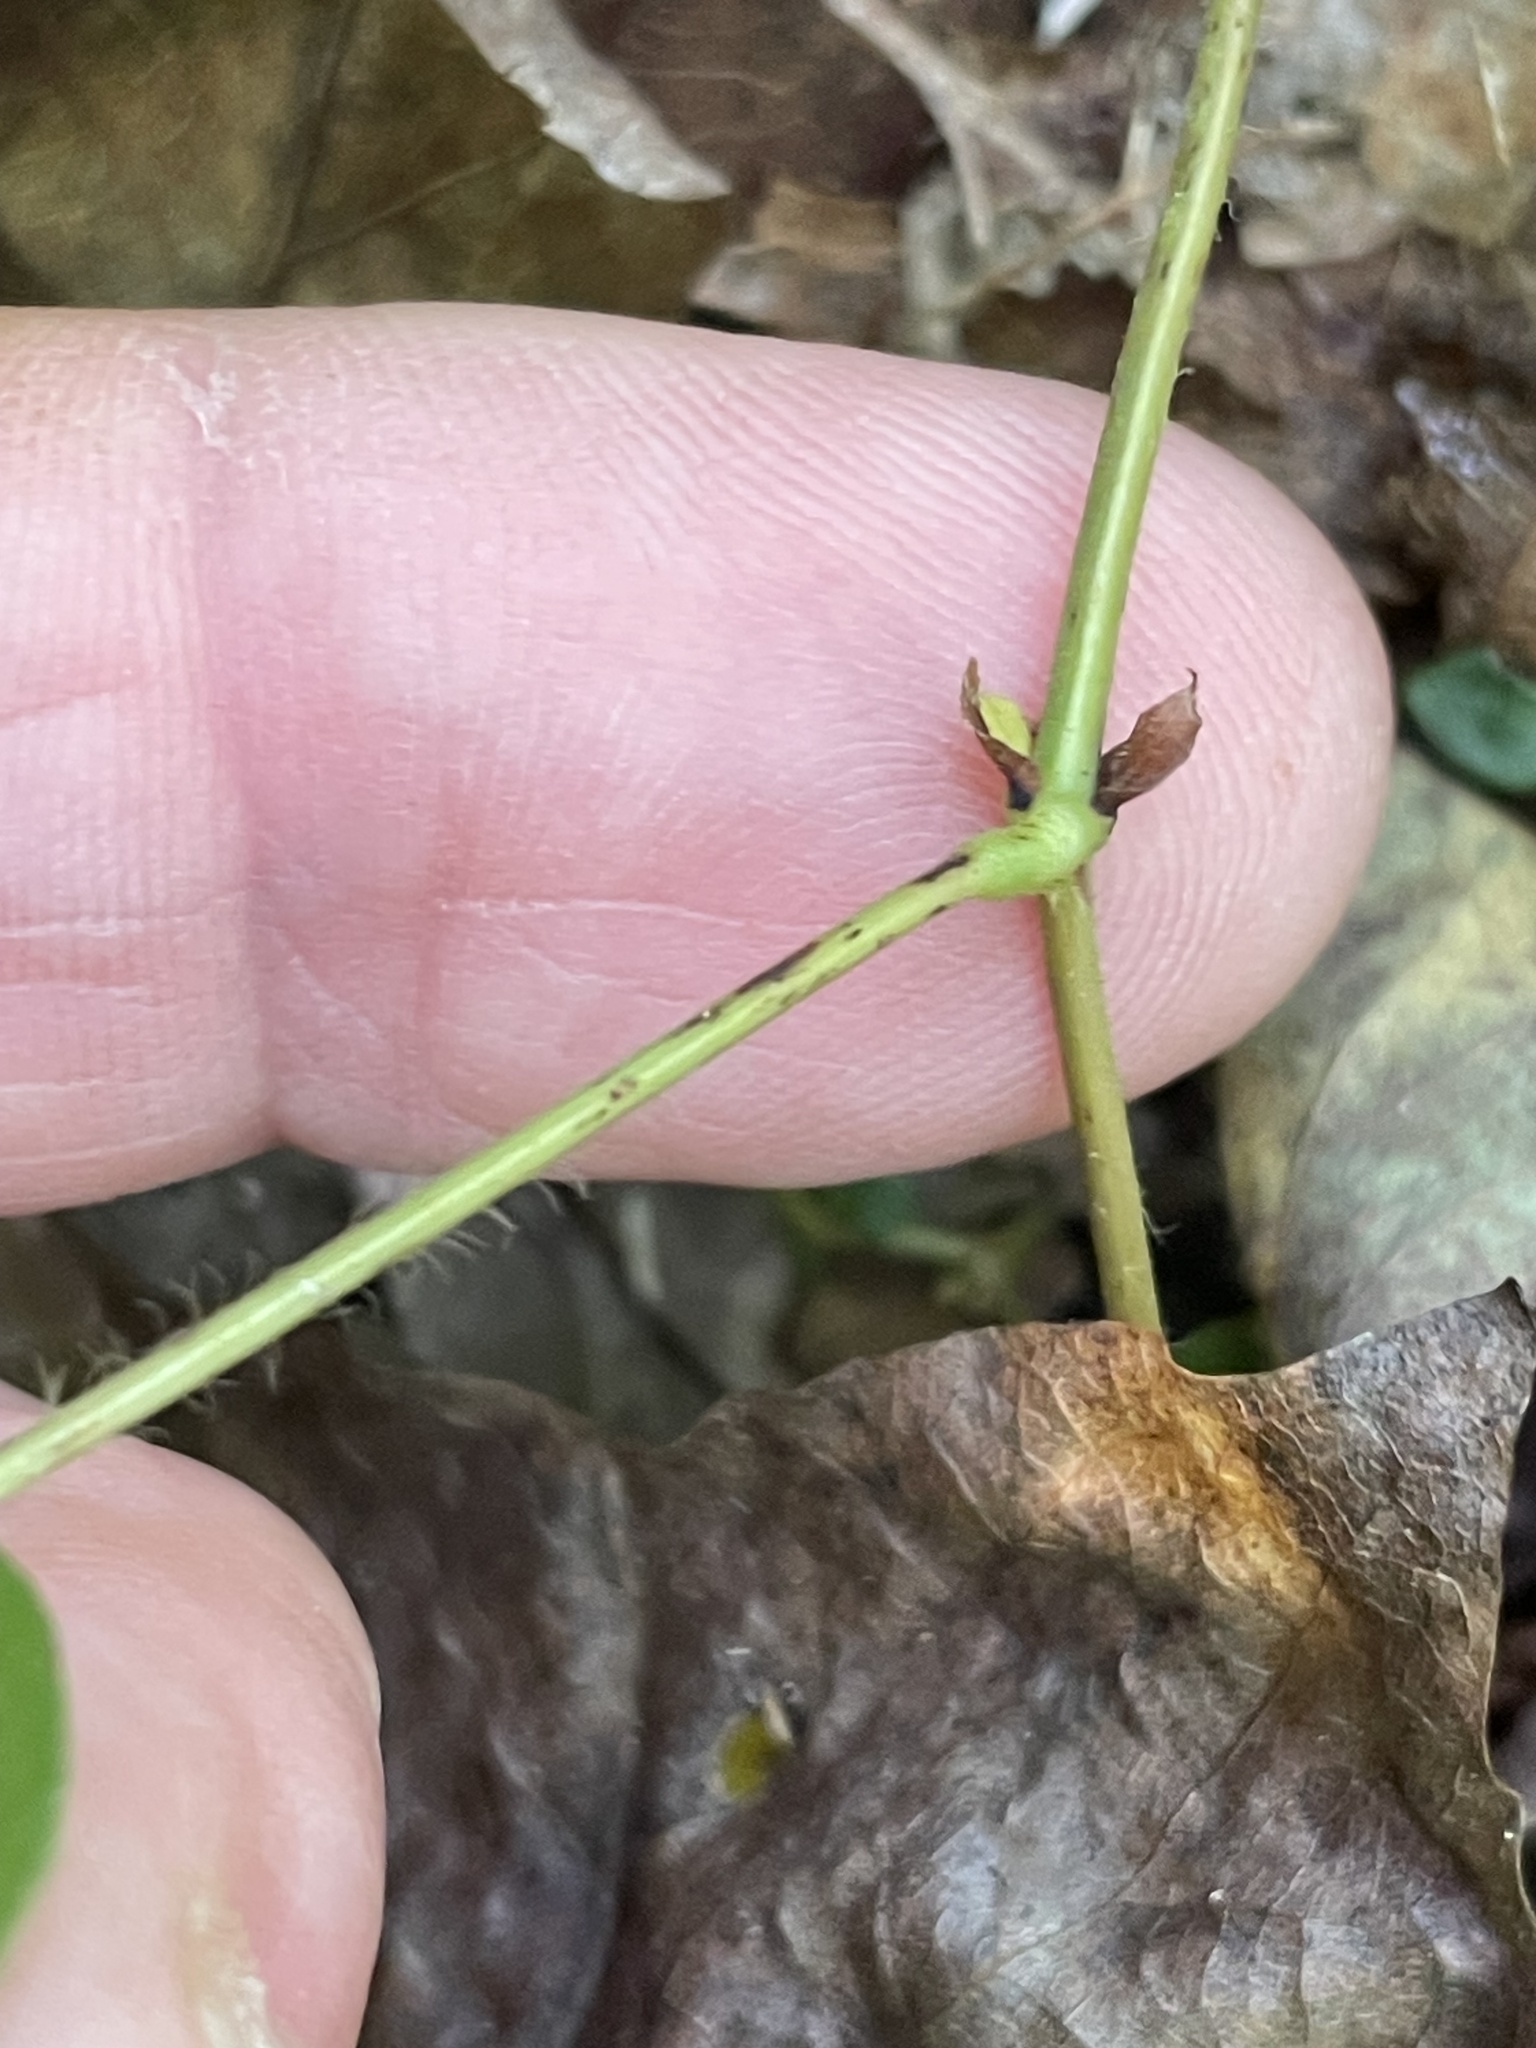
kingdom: Plantae
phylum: Tracheophyta
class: Magnoliopsida
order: Fabales
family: Fabaceae
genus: Desmodium
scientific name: Desmodium rotundifolium
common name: Dollarleaf
